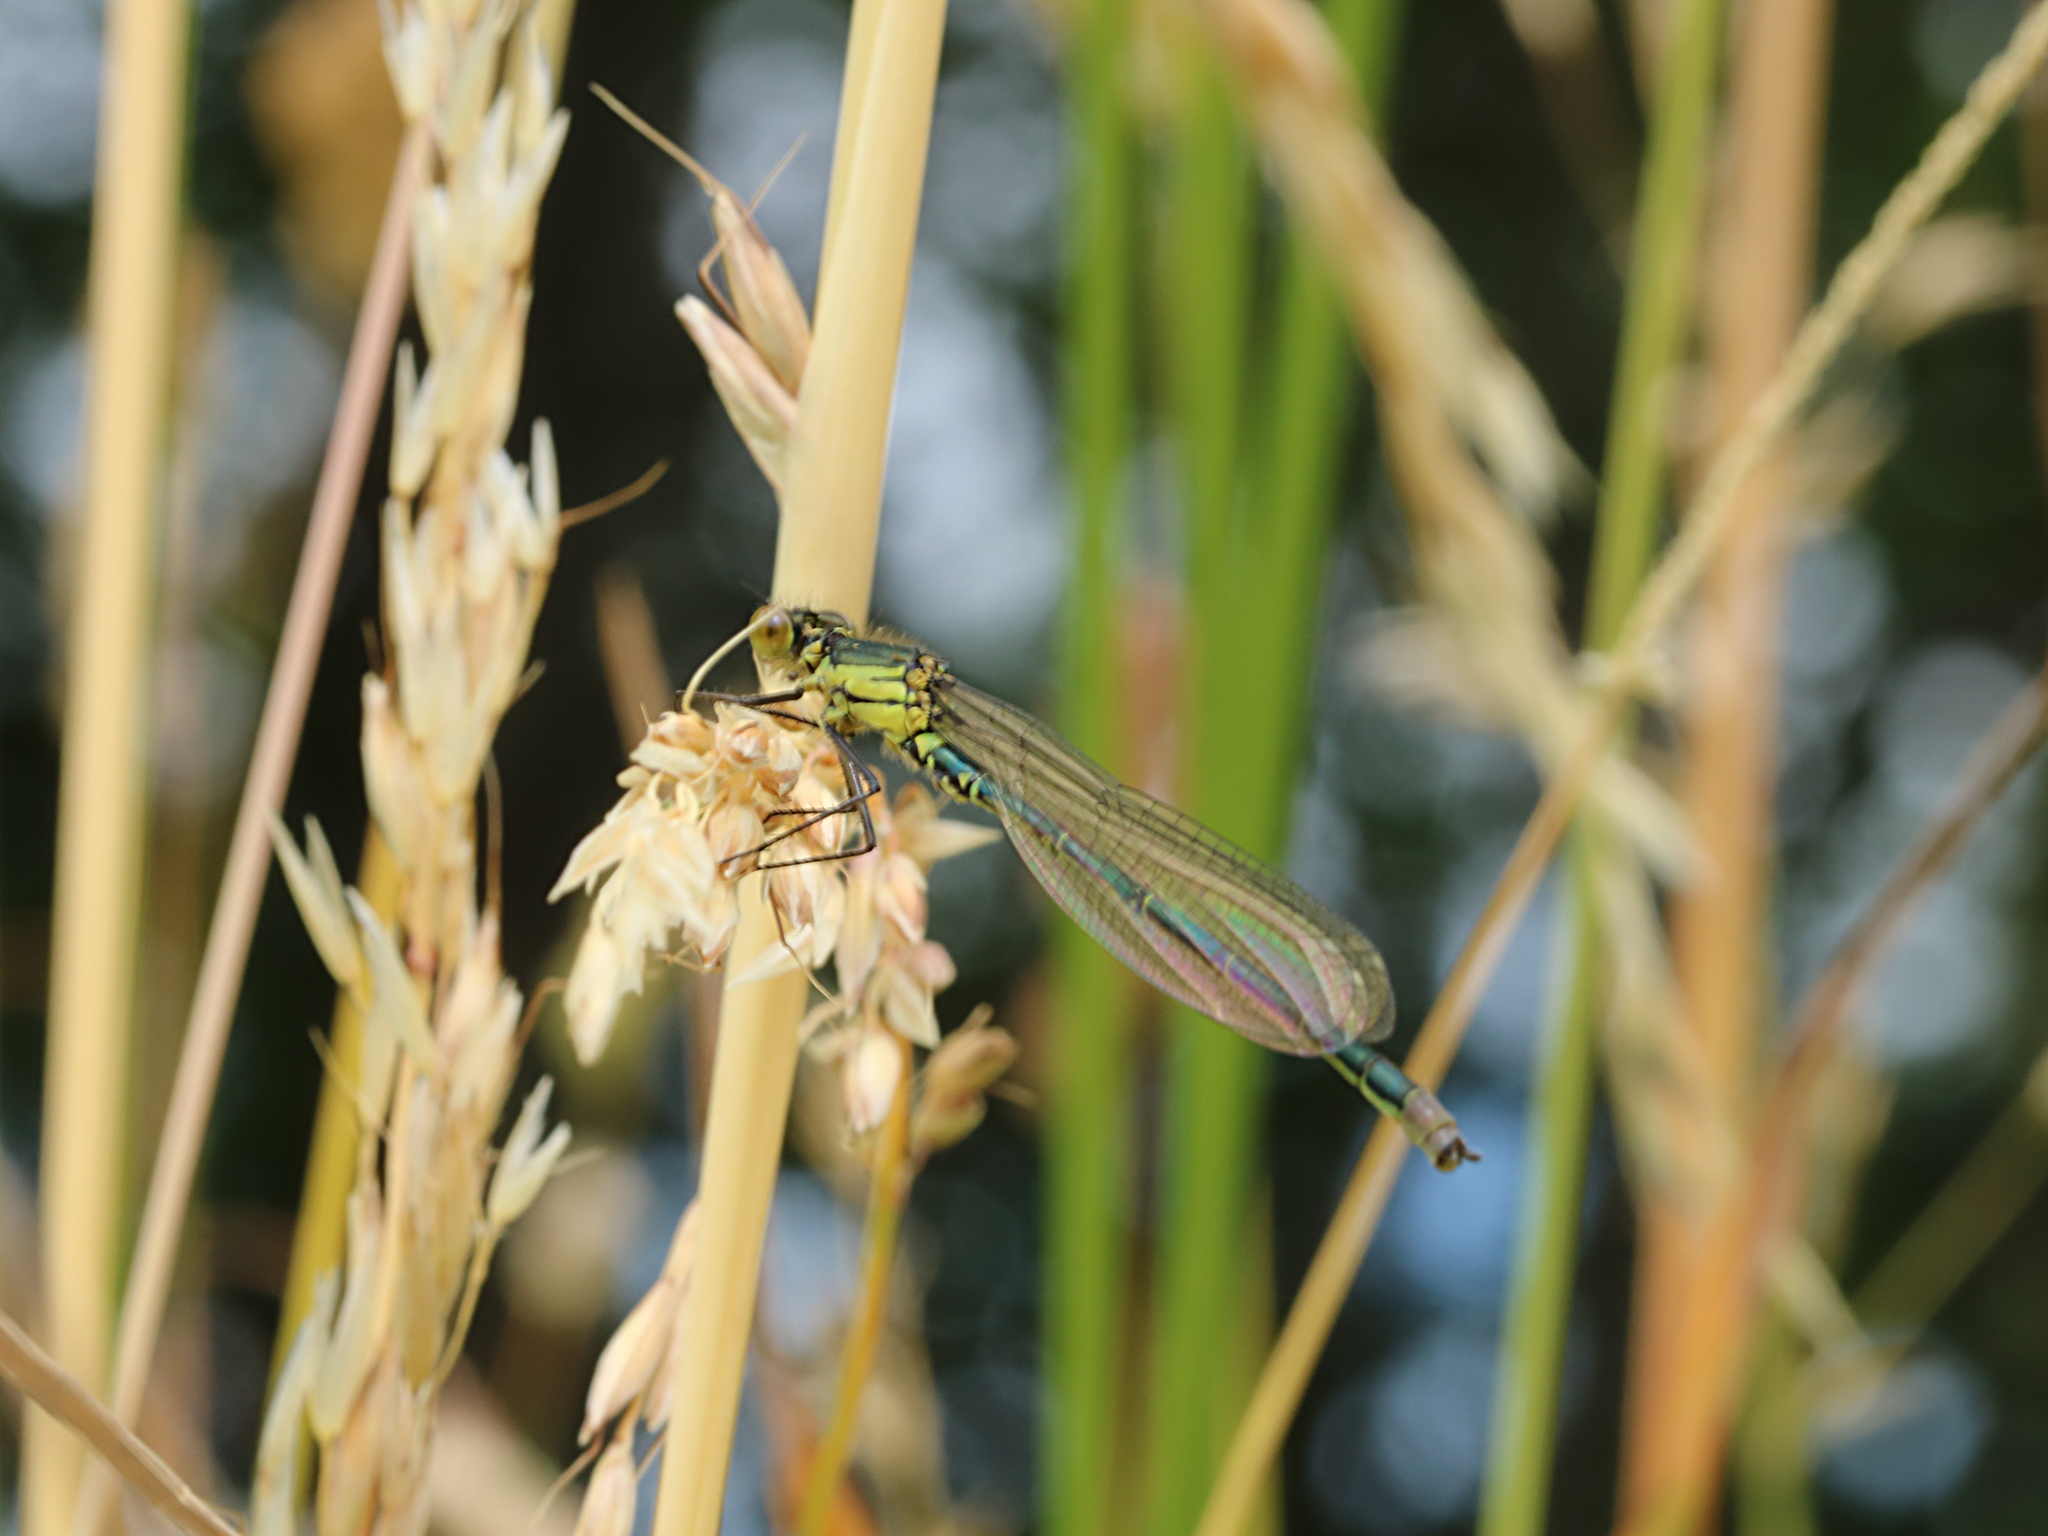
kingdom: Animalia
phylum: Arthropoda
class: Insecta
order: Odonata
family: Coenagrionidae
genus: Erythromma
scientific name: Erythromma najas
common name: Red-eyed damselfly
